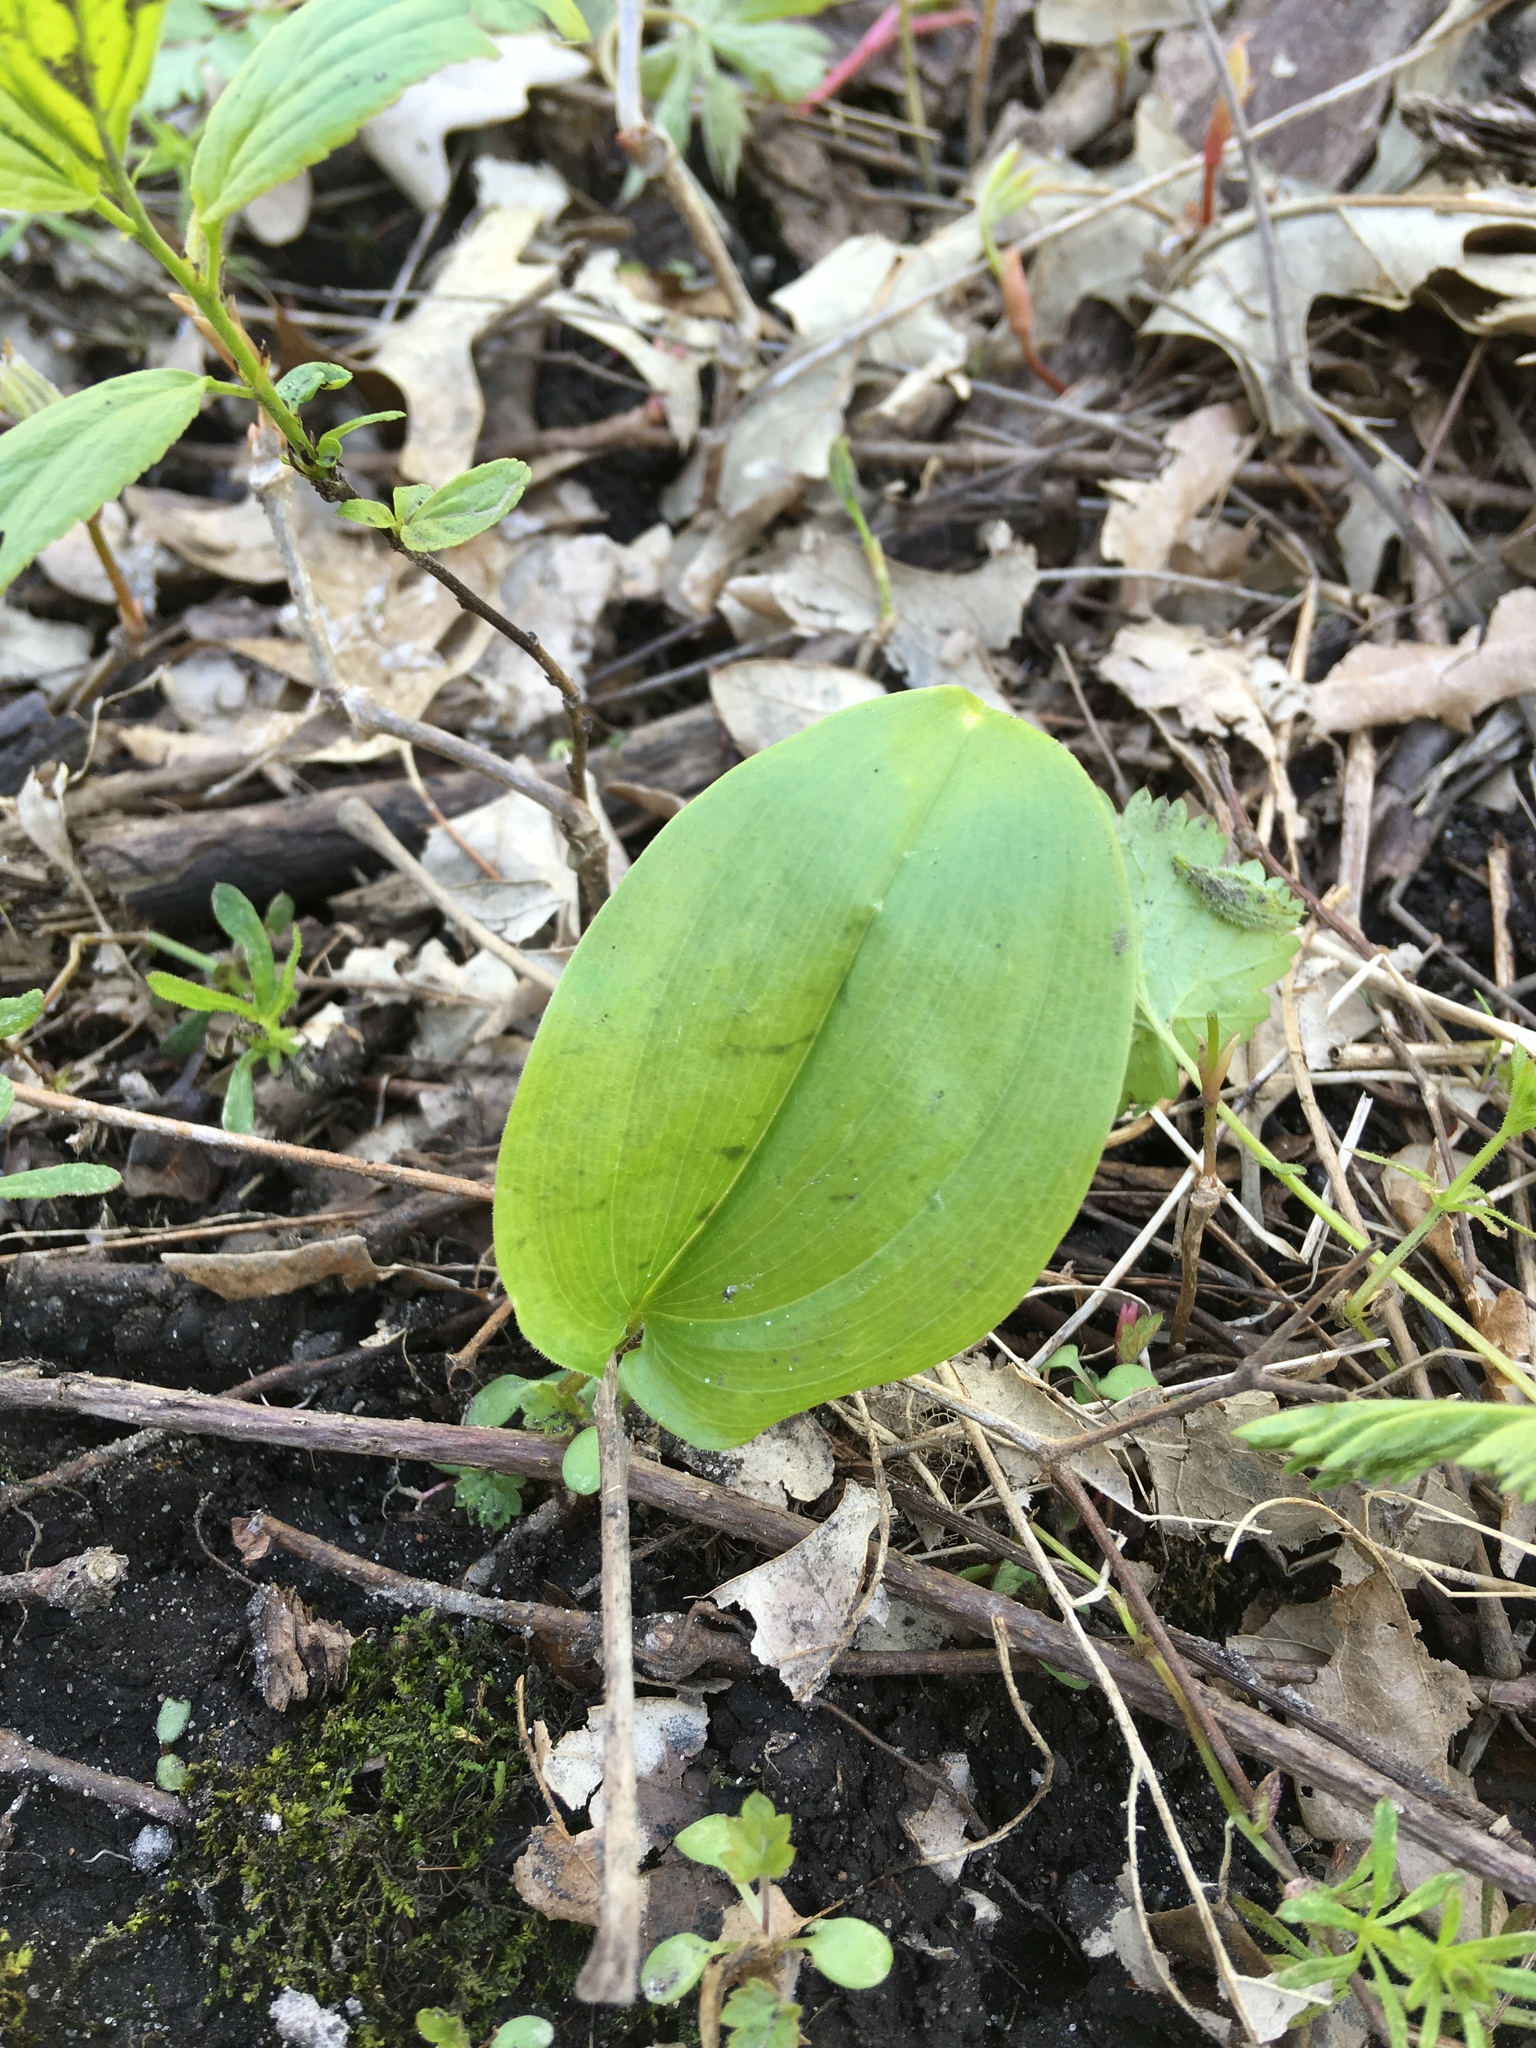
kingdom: Plantae
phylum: Tracheophyta
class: Liliopsida
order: Asparagales
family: Asparagaceae
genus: Maianthemum
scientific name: Maianthemum canadense
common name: False lily-of-the-valley
